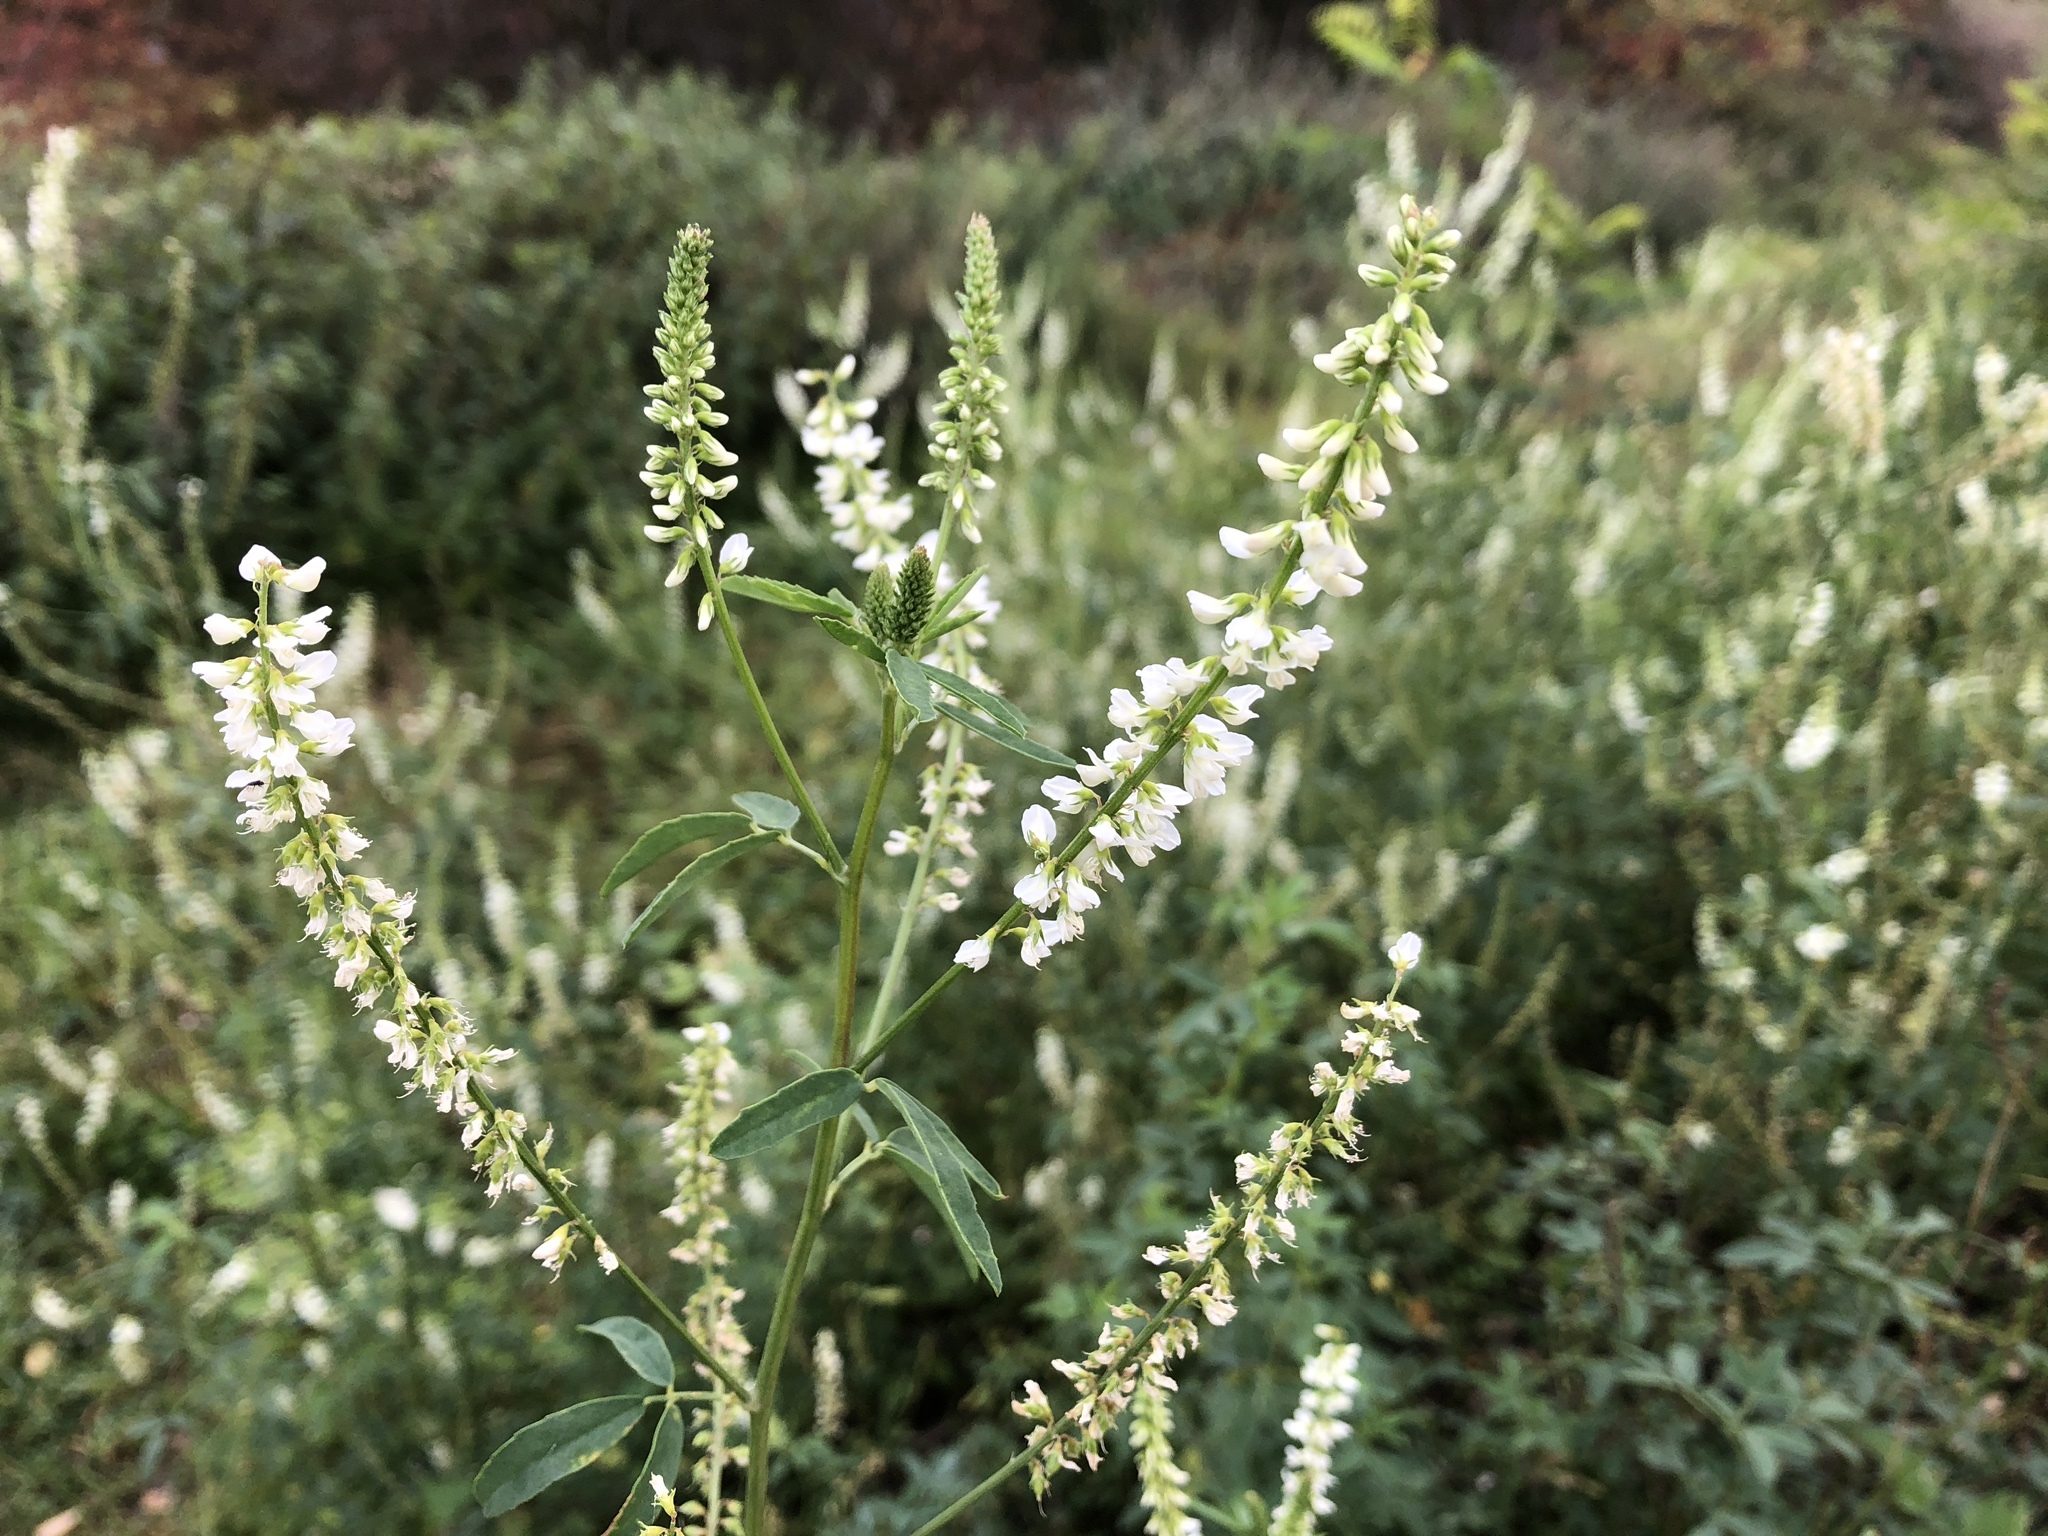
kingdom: Plantae
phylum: Tracheophyta
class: Magnoliopsida
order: Fabales
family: Fabaceae
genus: Melilotus
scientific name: Melilotus albus
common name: White melilot
